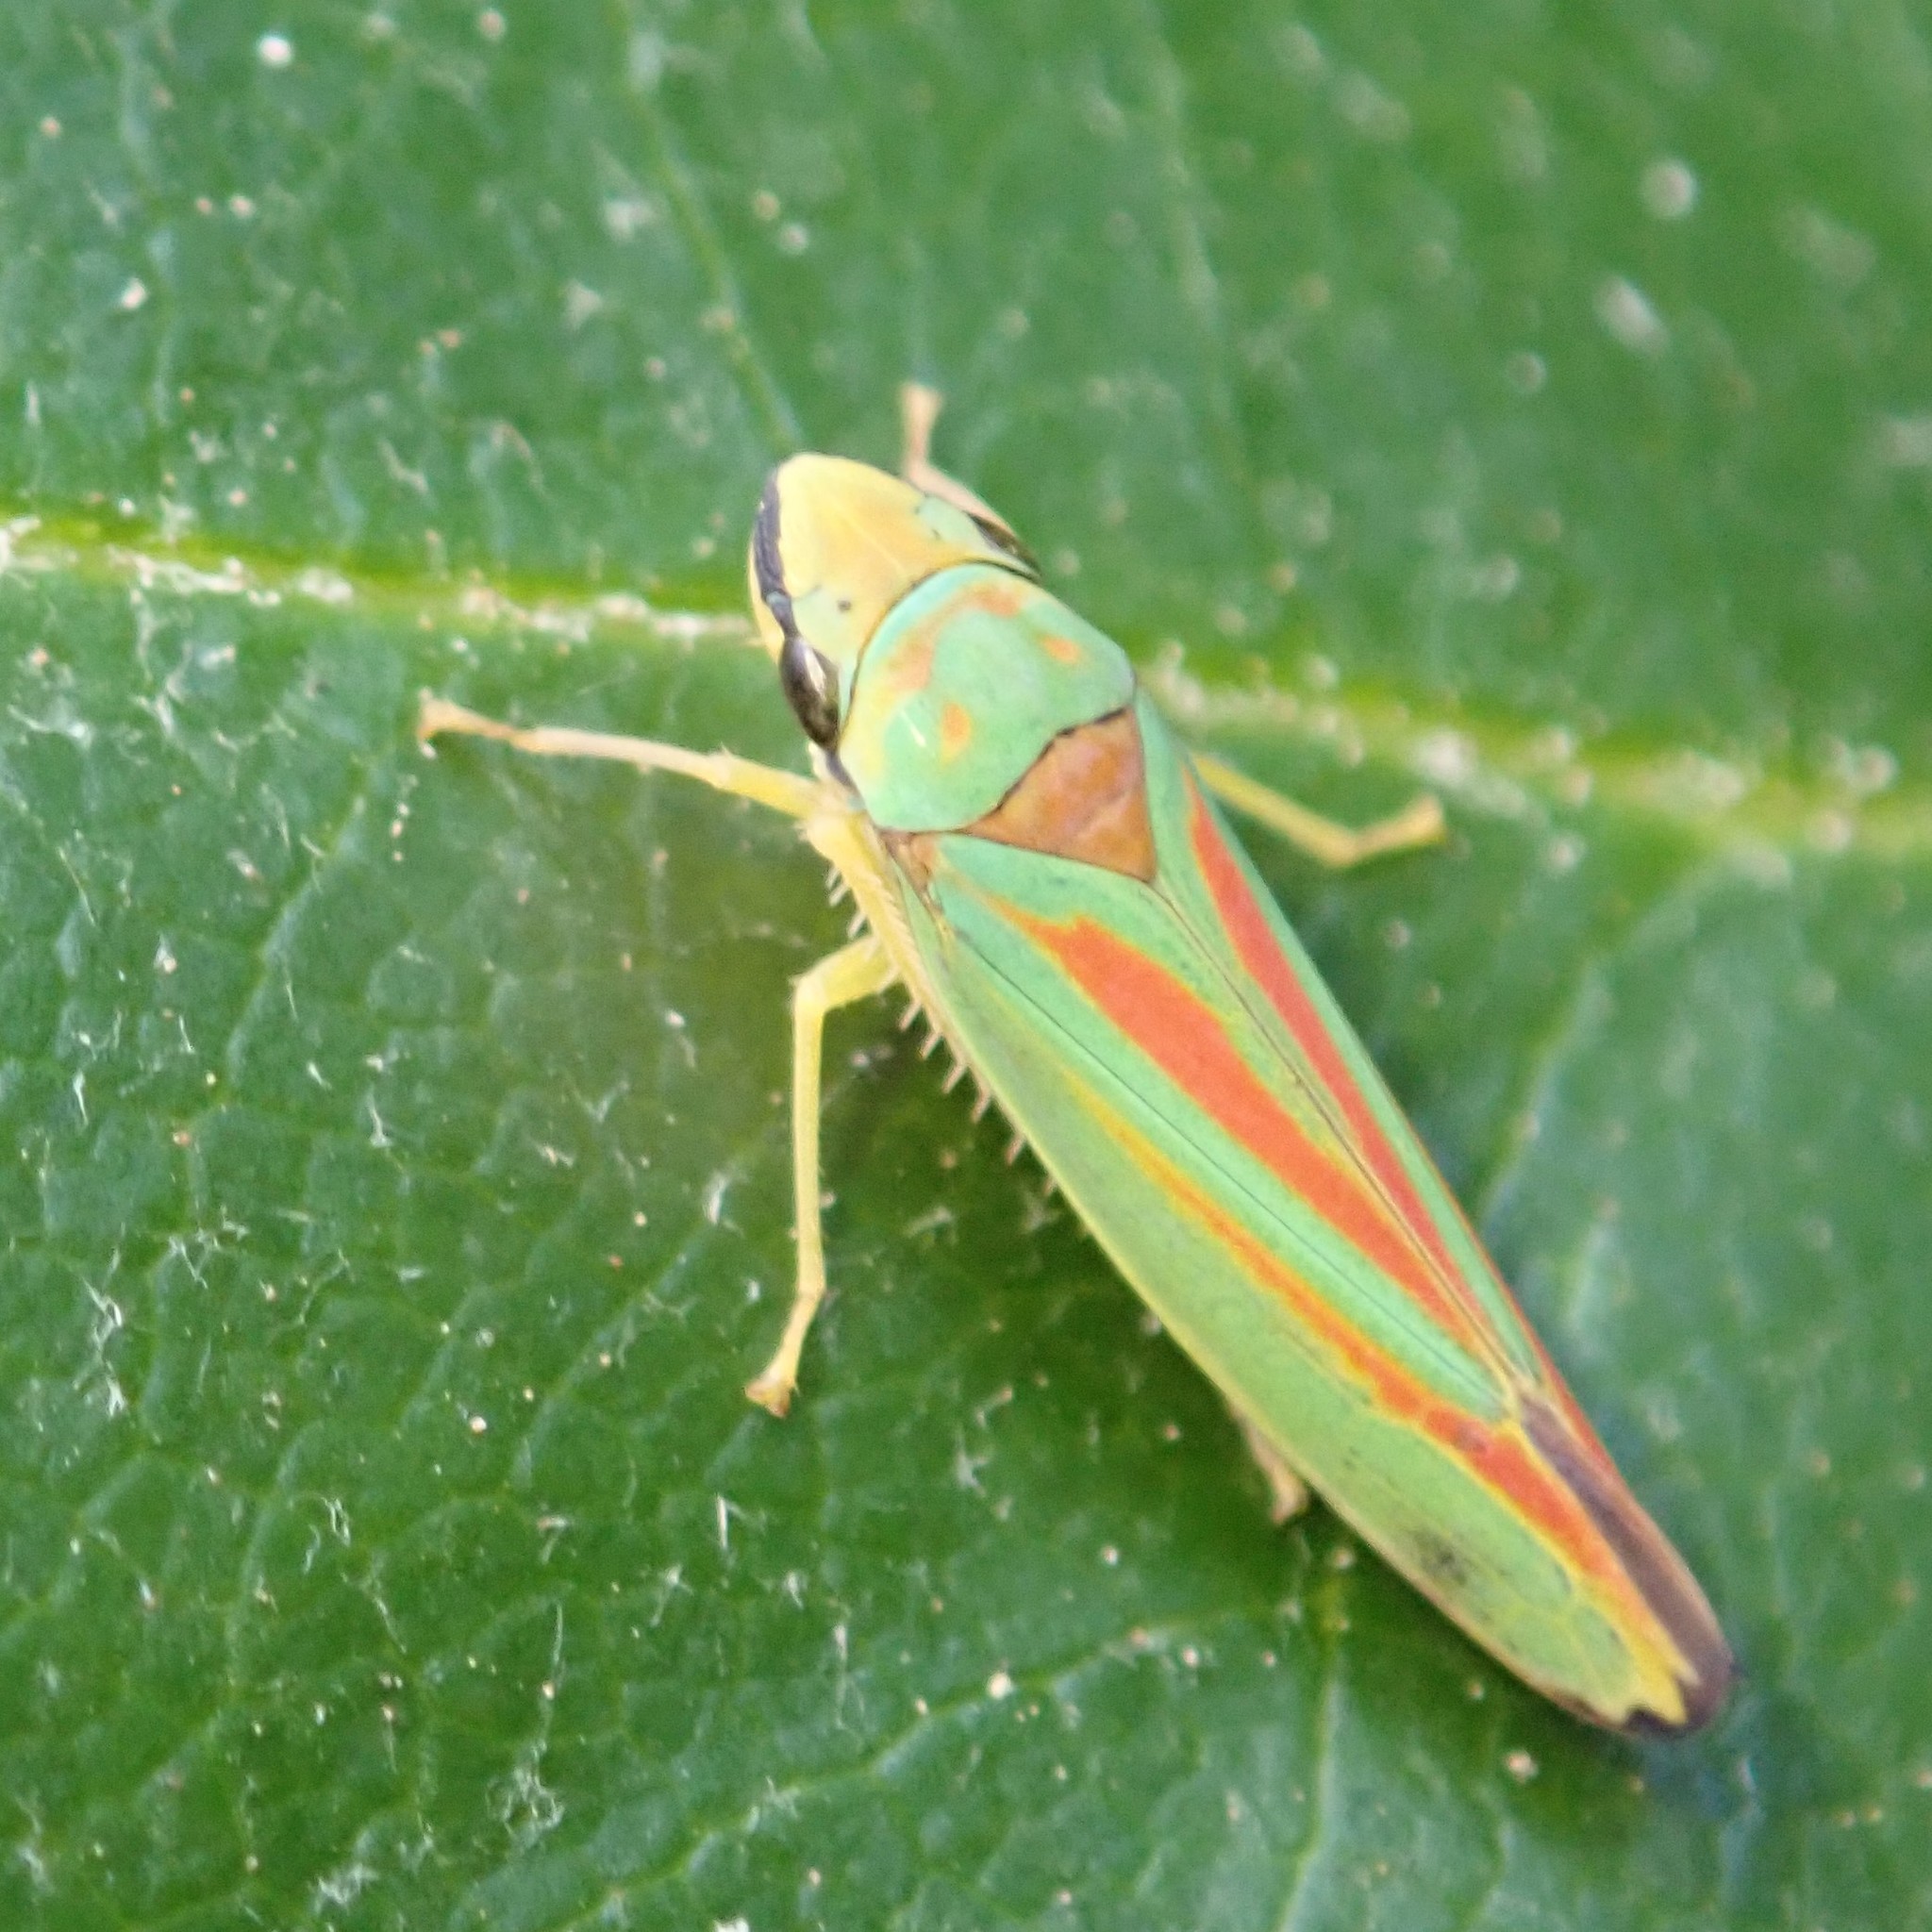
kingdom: Animalia
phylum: Arthropoda
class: Insecta
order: Hemiptera
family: Cicadellidae
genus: Graphocephala
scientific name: Graphocephala fennahi
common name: Rhododendron leafhopper
